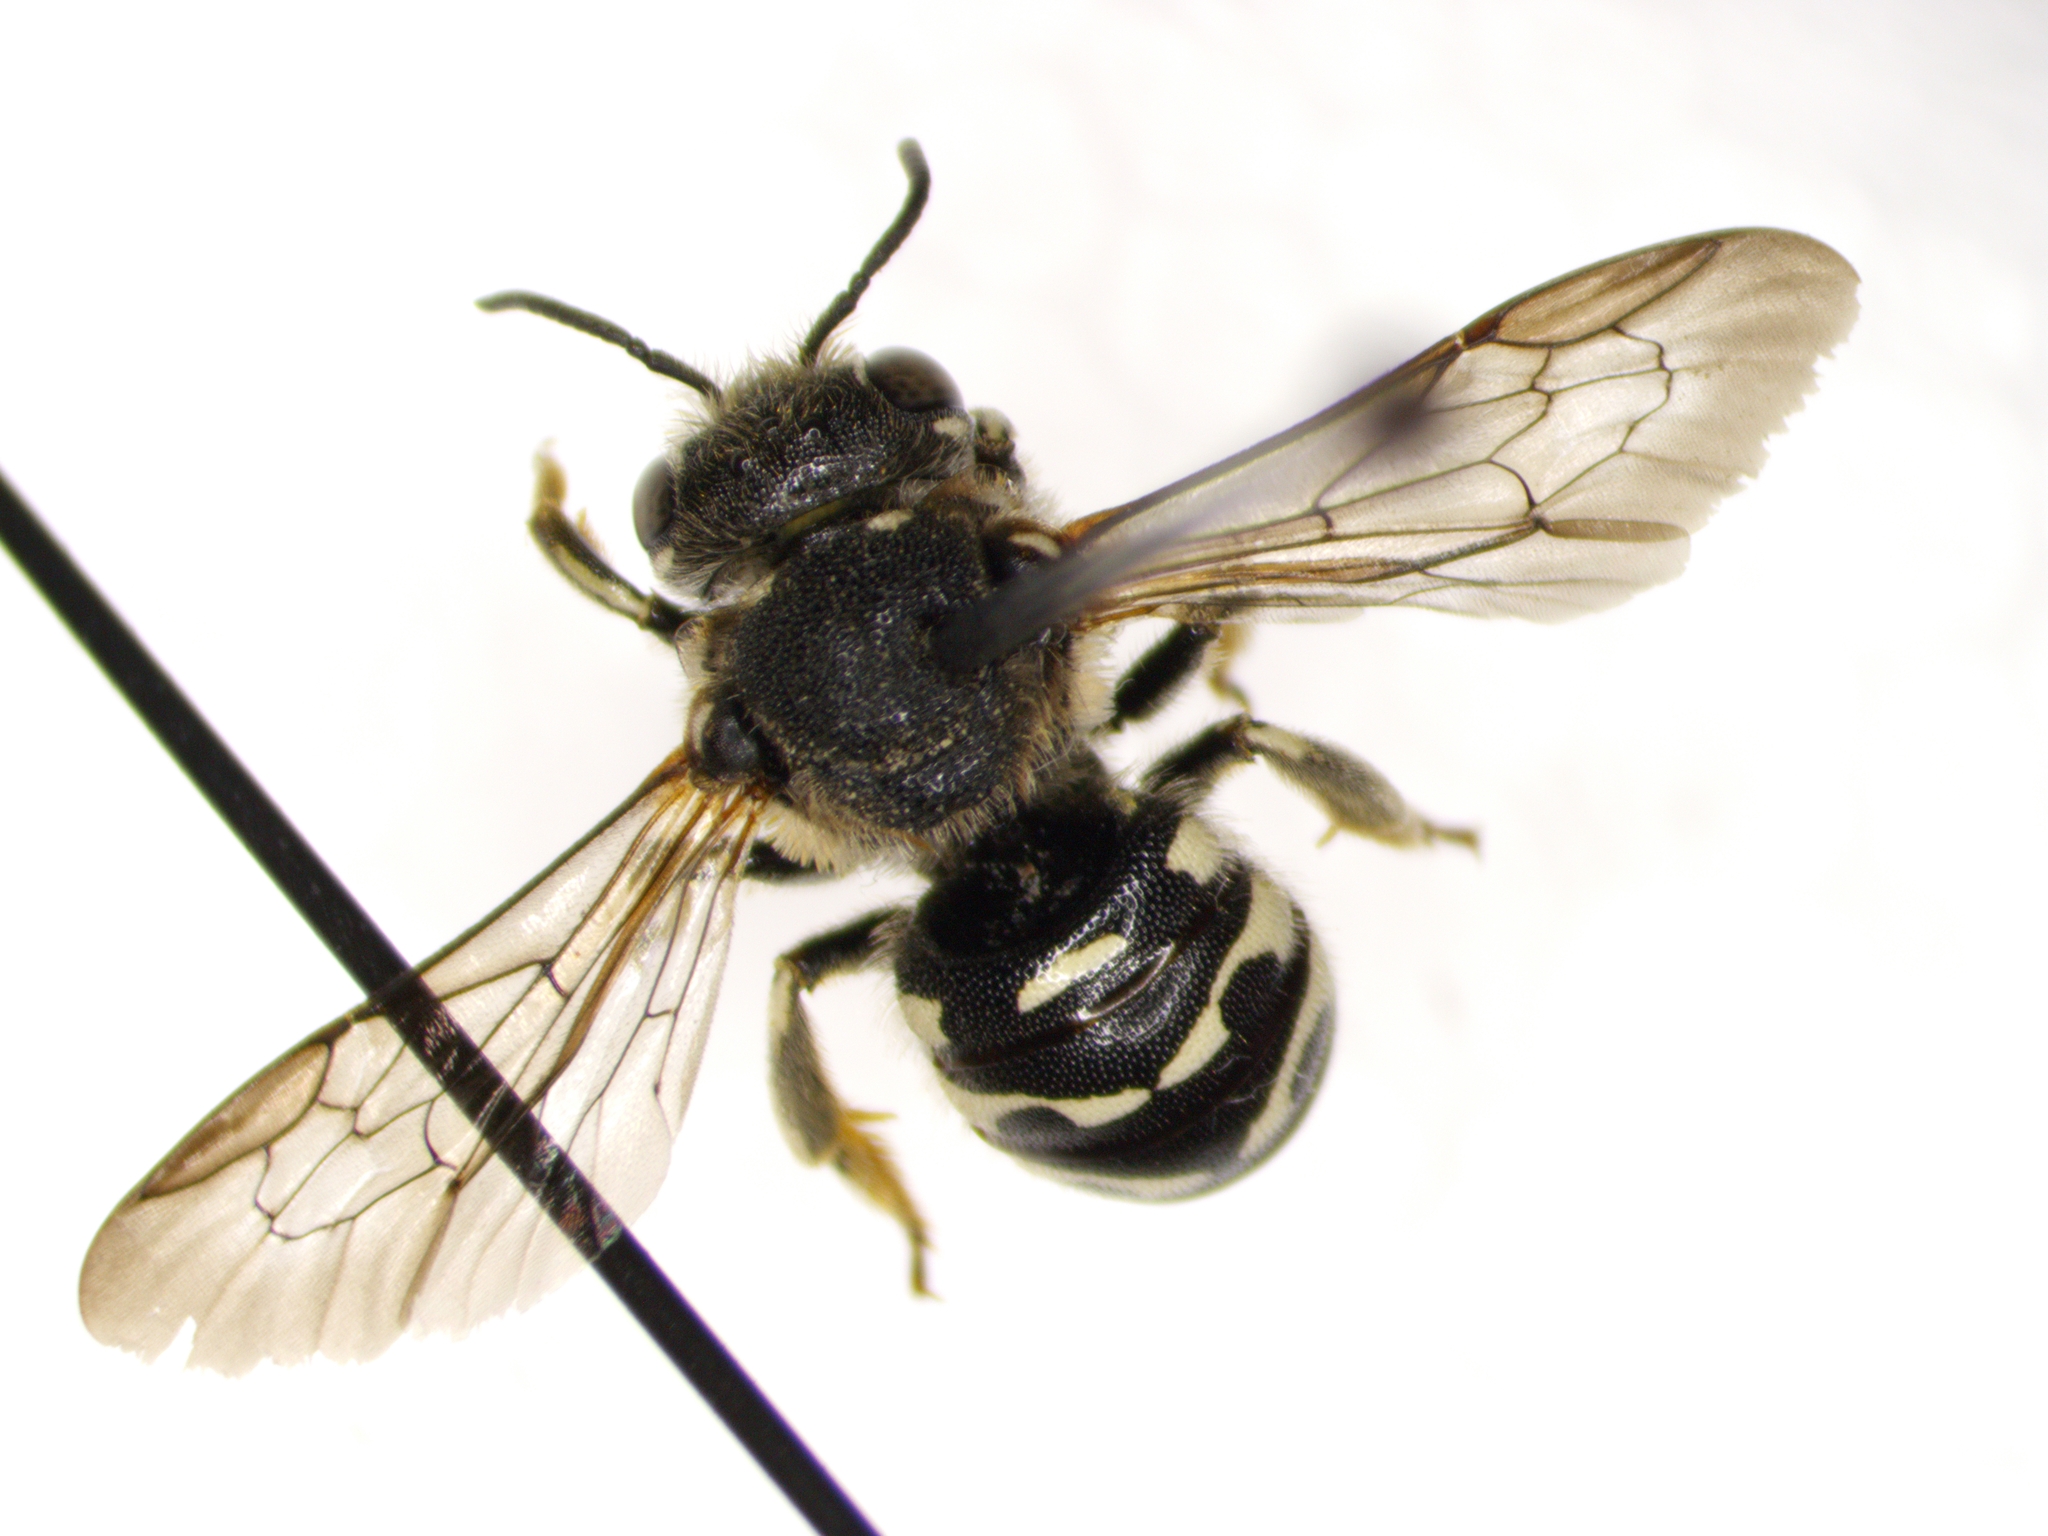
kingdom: Animalia
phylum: Arthropoda
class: Insecta
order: Hymenoptera
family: Megachilidae
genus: Dianthidium
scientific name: Dianthidium subparvum
